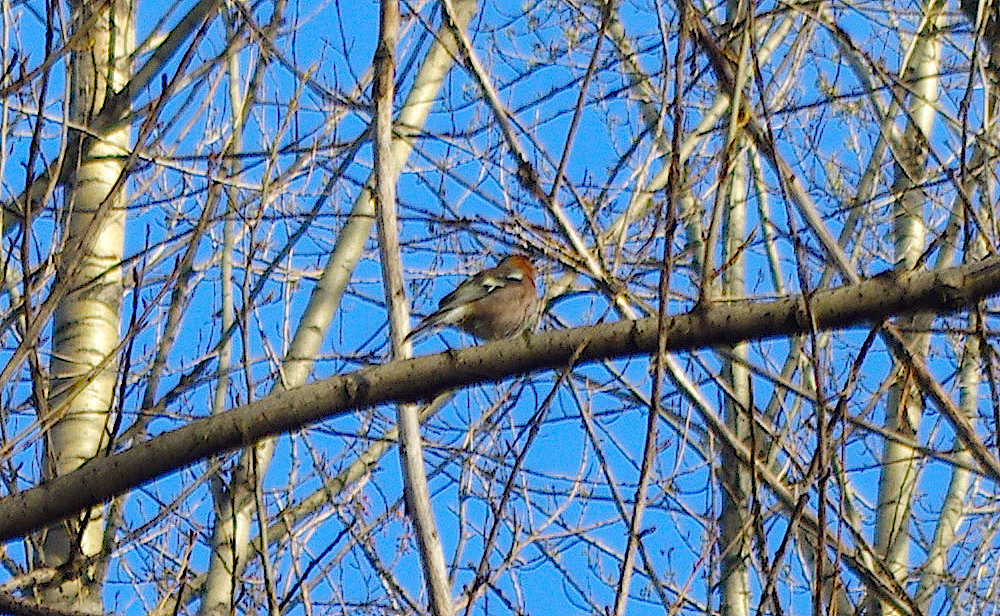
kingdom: Animalia
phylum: Chordata
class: Aves
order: Passeriformes
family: Fringillidae
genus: Fringilla
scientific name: Fringilla coelebs
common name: Common chaffinch
